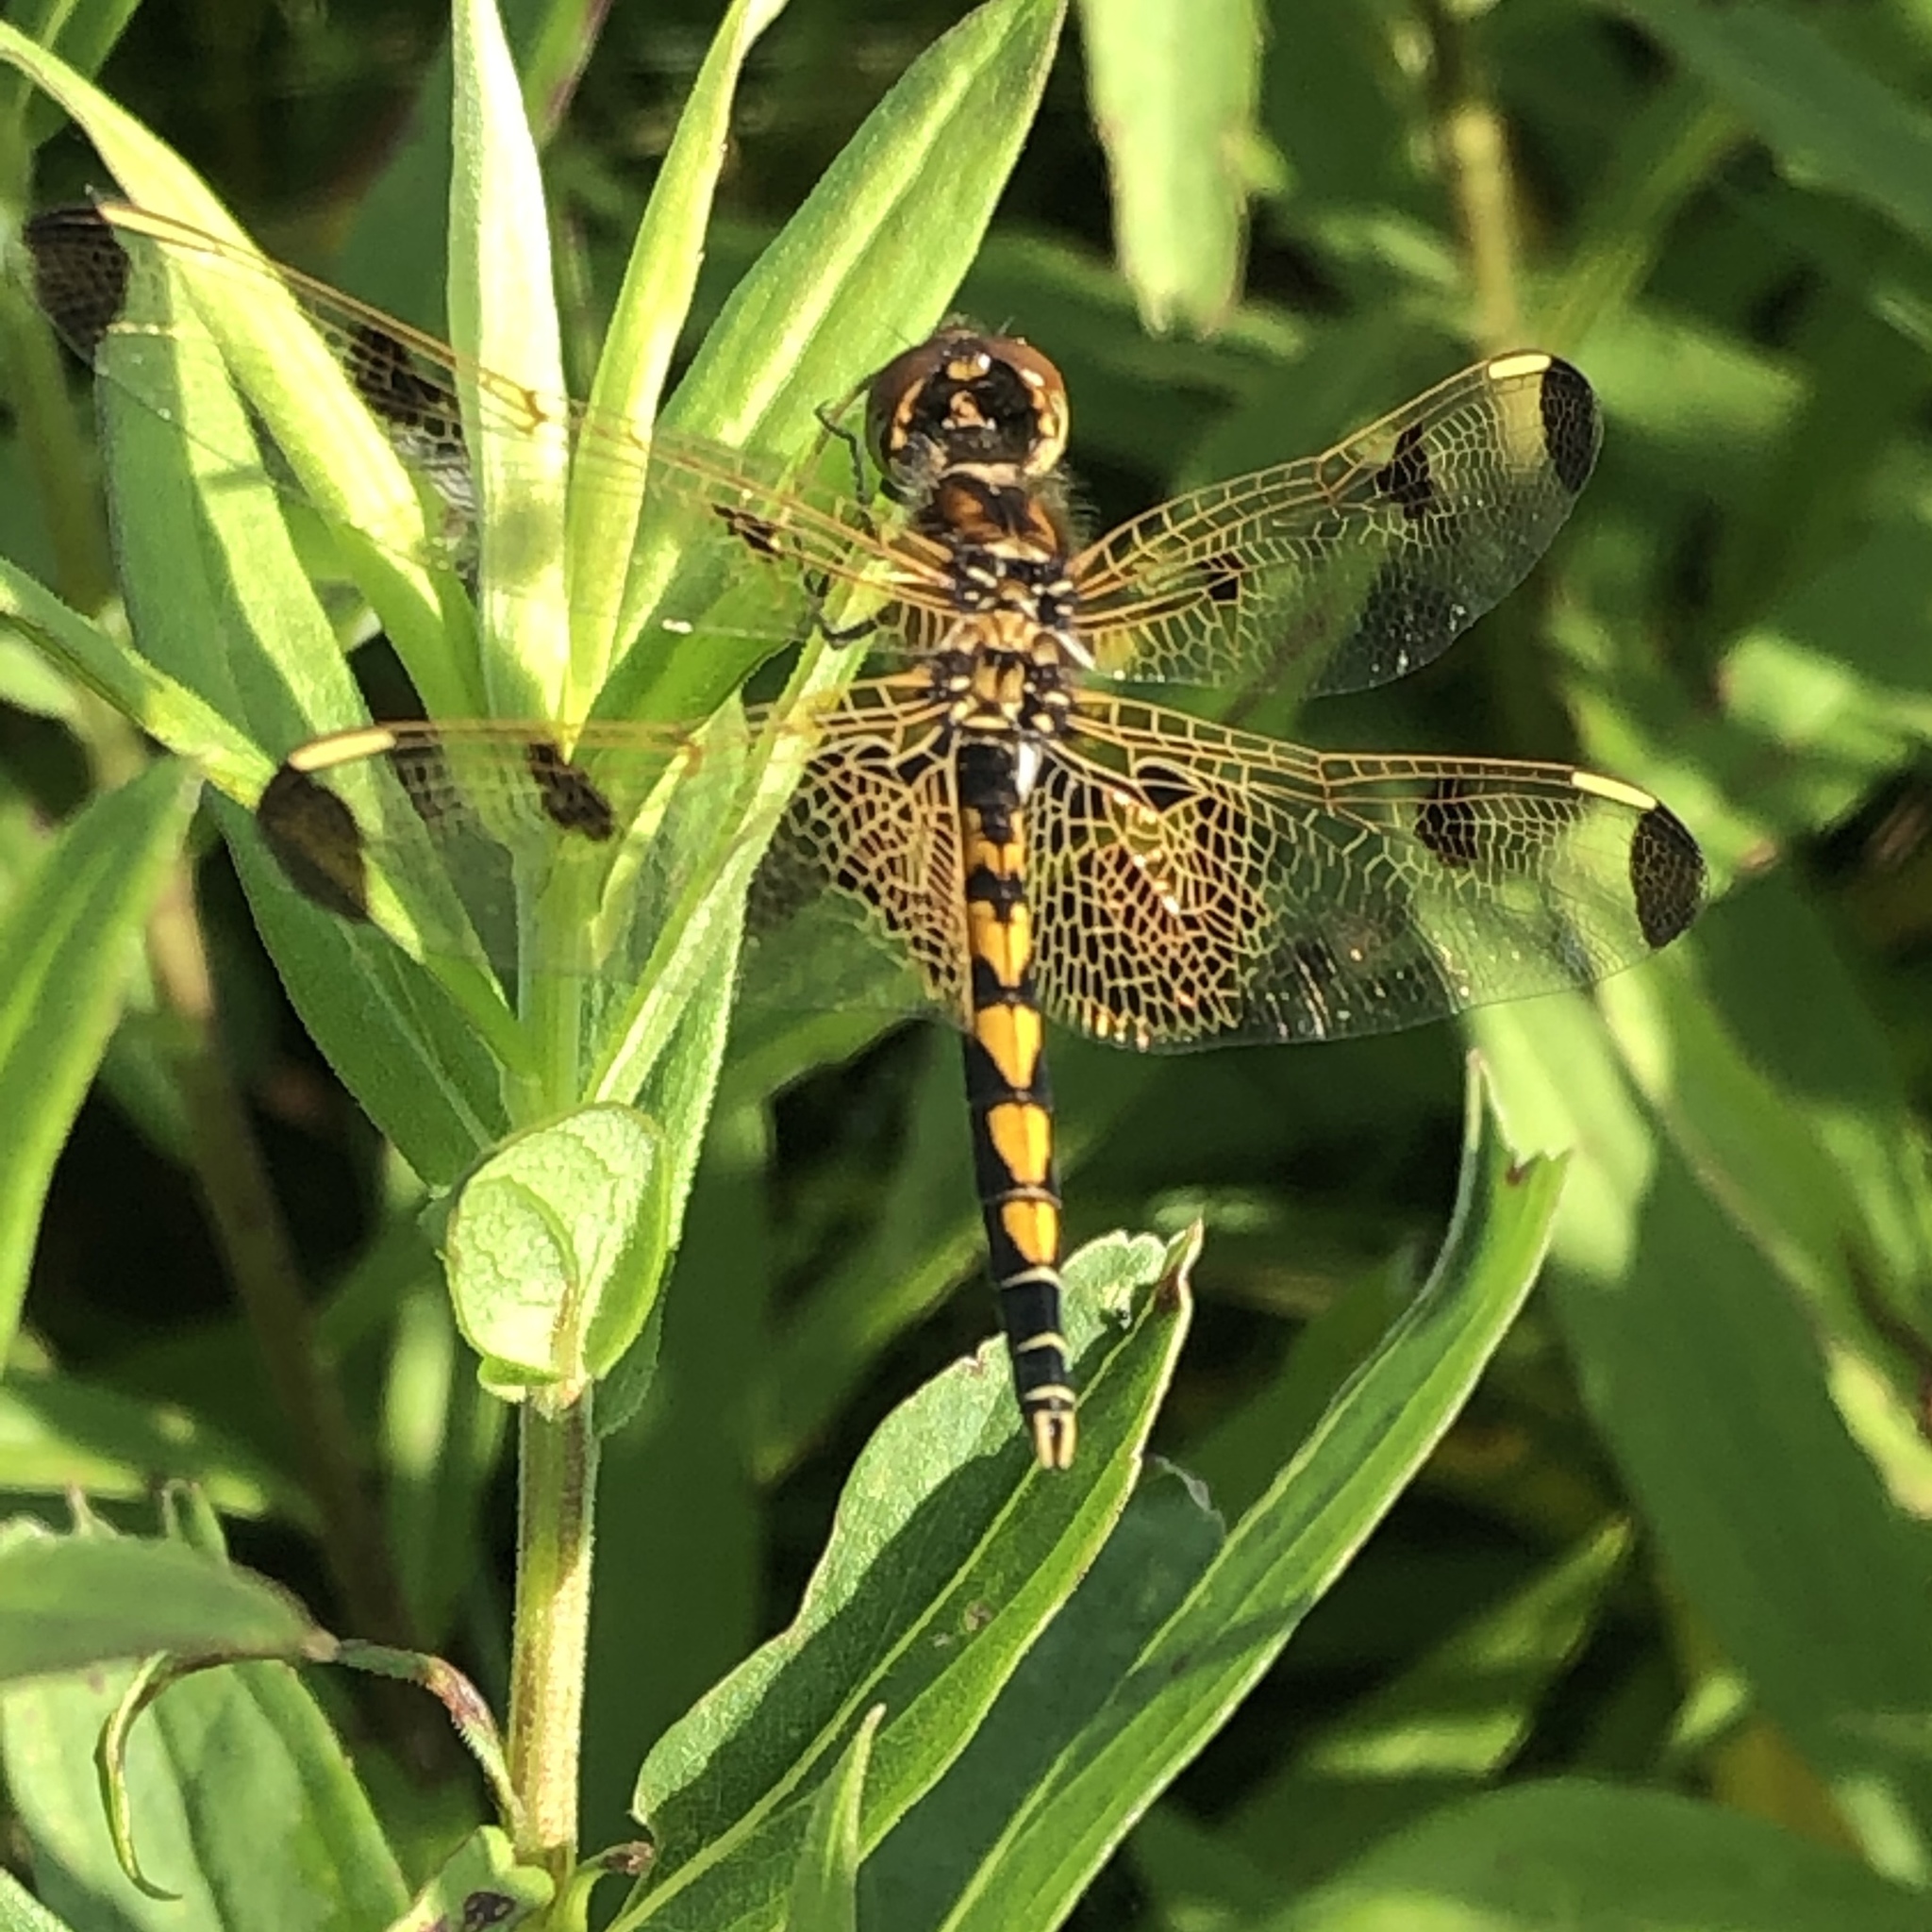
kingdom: Animalia
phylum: Arthropoda
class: Insecta
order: Odonata
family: Libellulidae
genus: Celithemis
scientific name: Celithemis elisa
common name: Calico pennant
